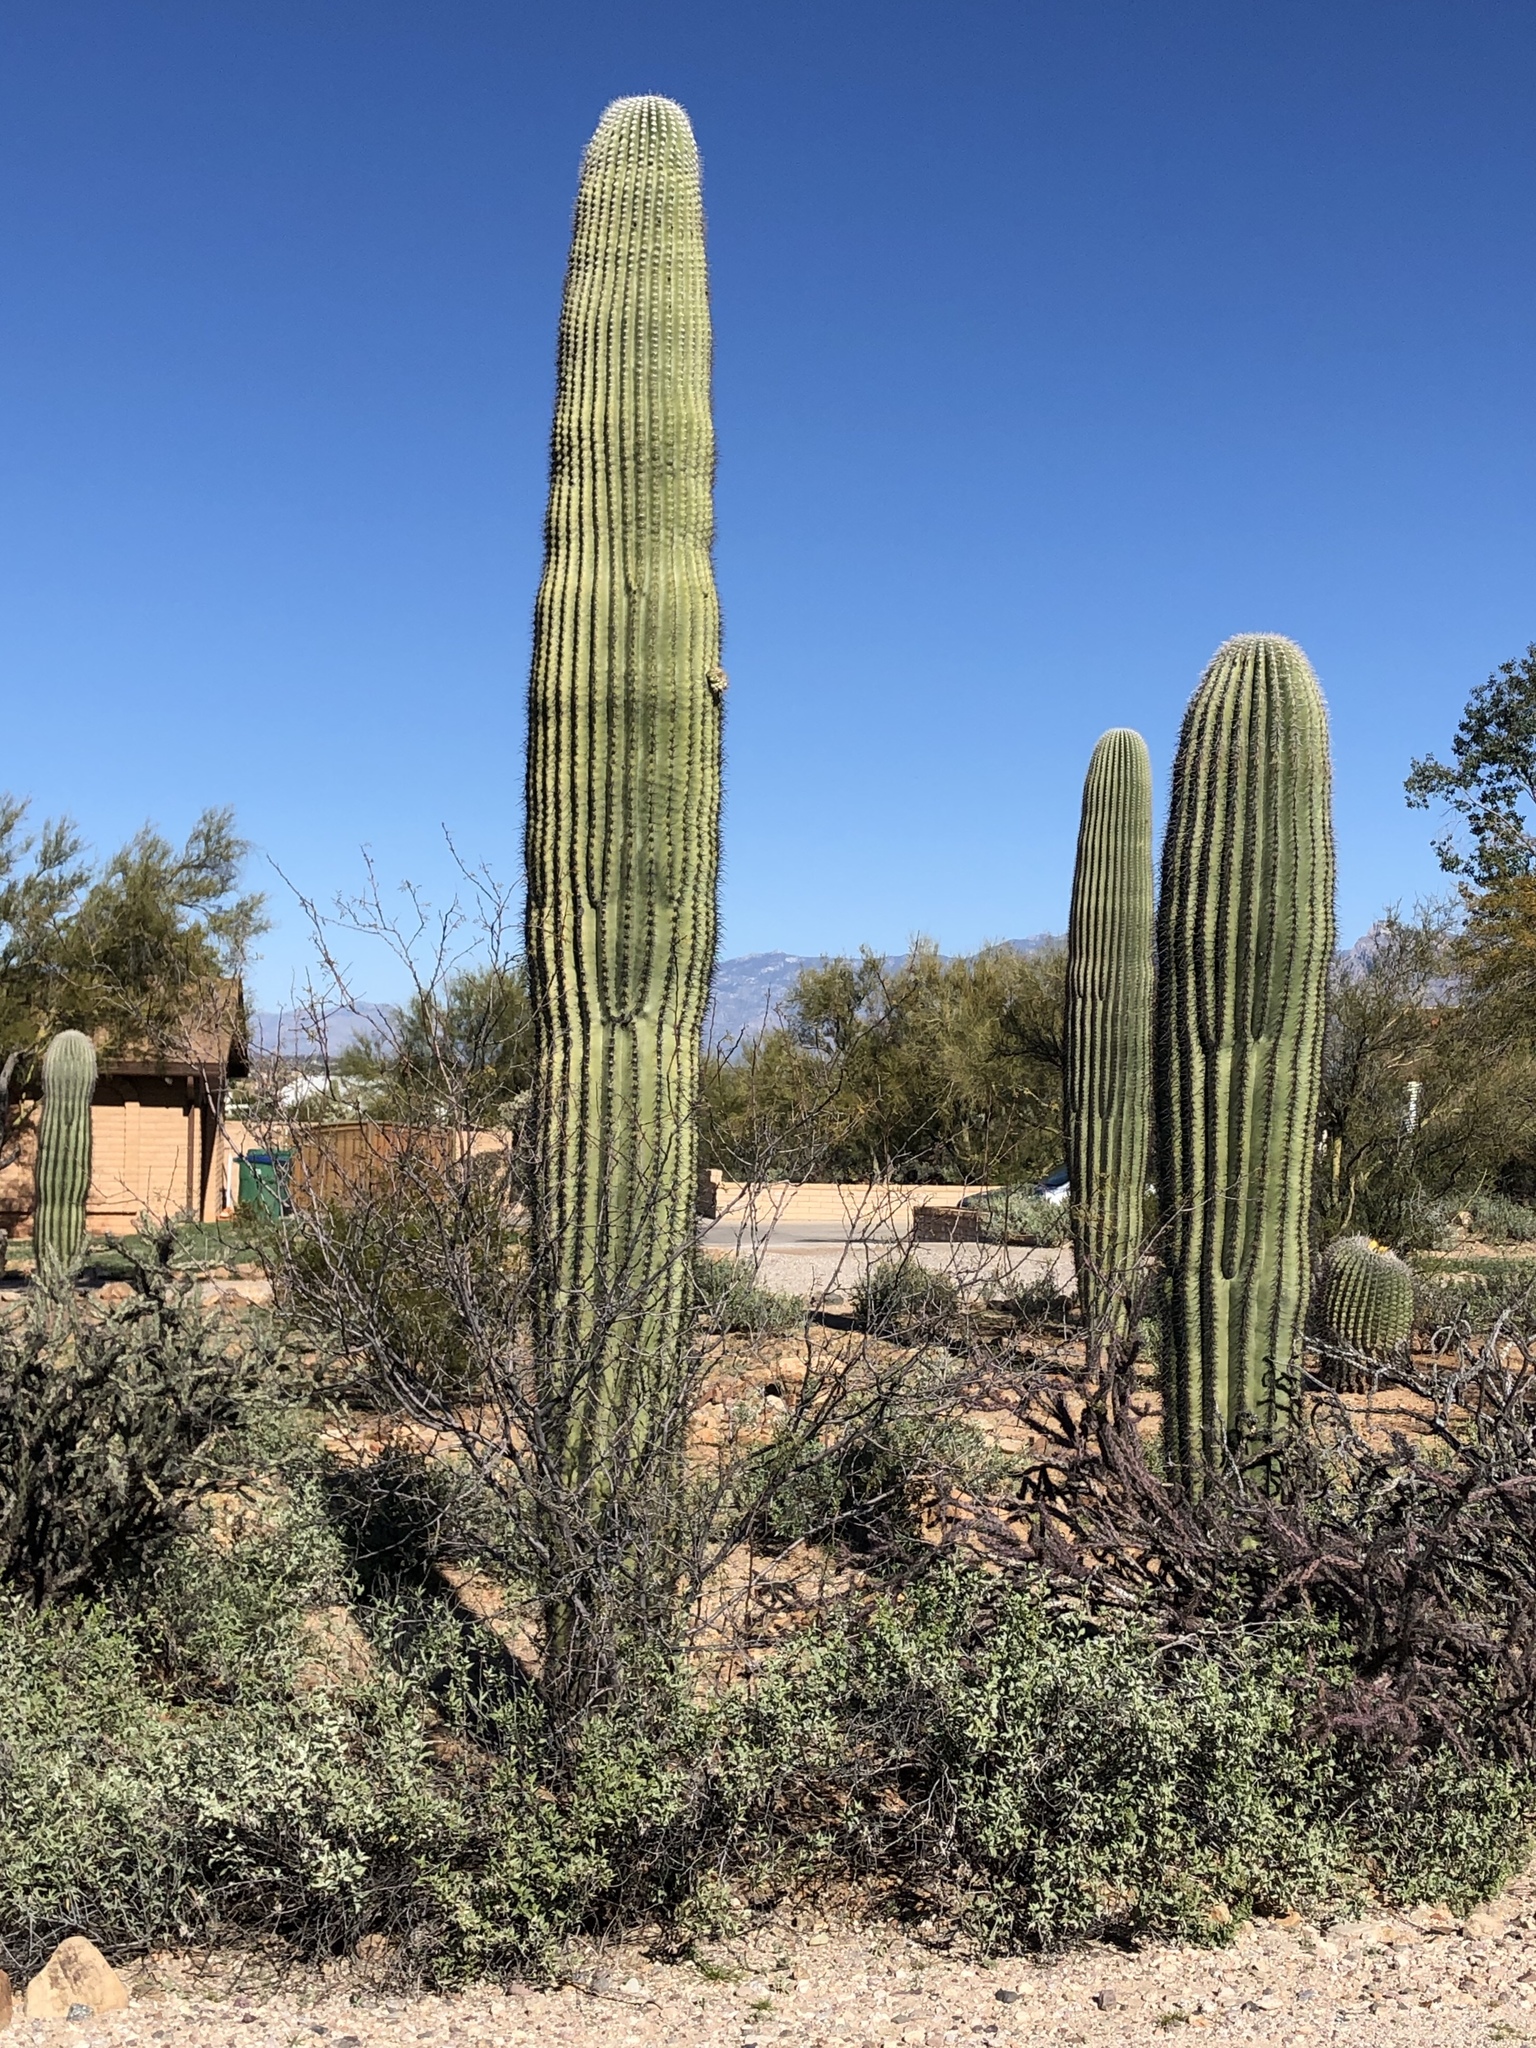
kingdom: Plantae
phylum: Tracheophyta
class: Magnoliopsida
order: Caryophyllales
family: Cactaceae
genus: Carnegiea
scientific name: Carnegiea gigantea
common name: Saguaro
